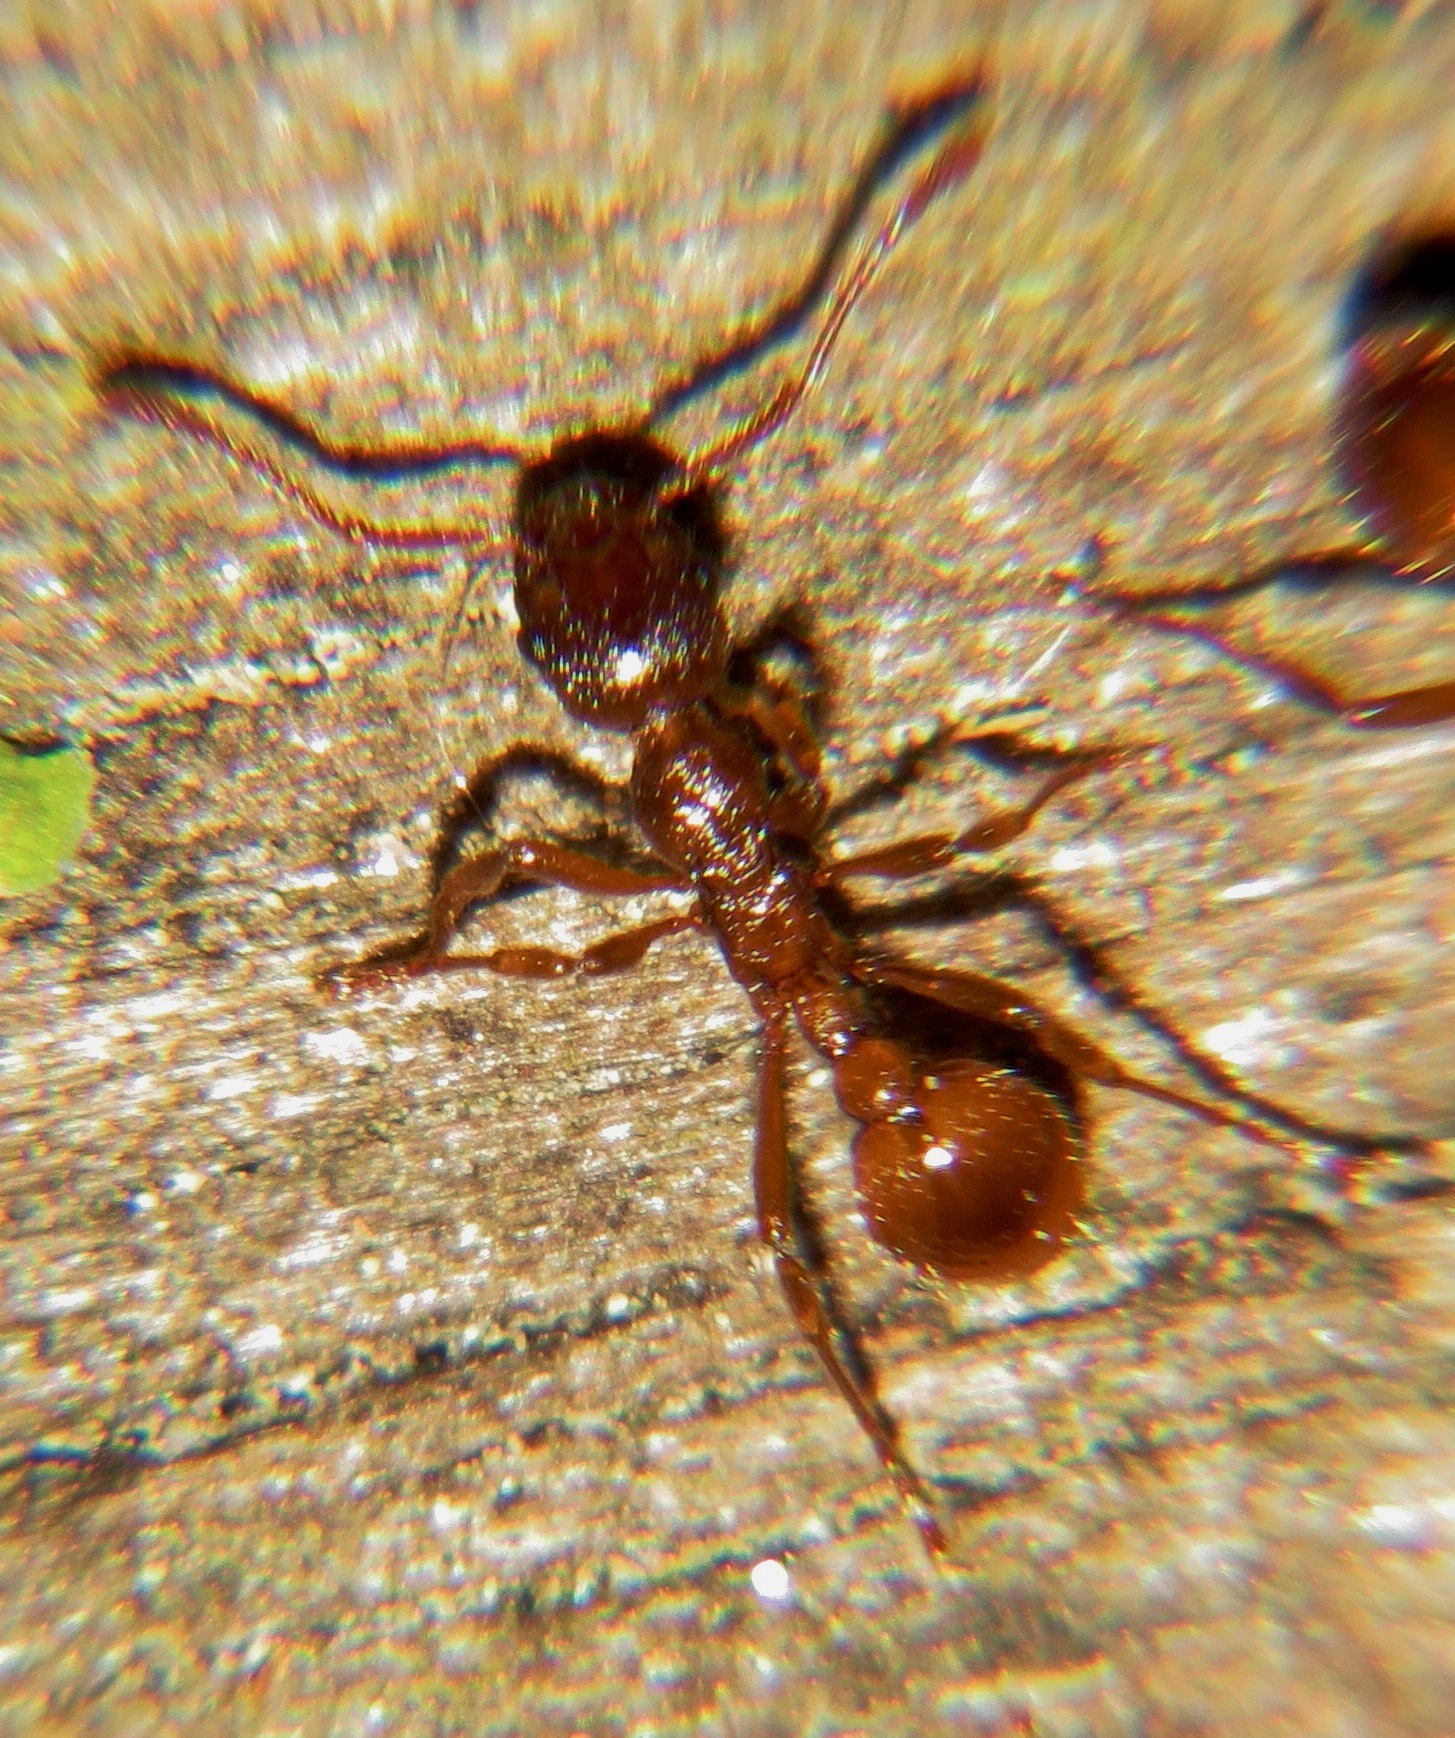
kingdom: Animalia
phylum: Arthropoda
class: Insecta
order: Hymenoptera
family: Formicidae
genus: Myrmica
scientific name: Myrmica rubra
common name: European fire ant
